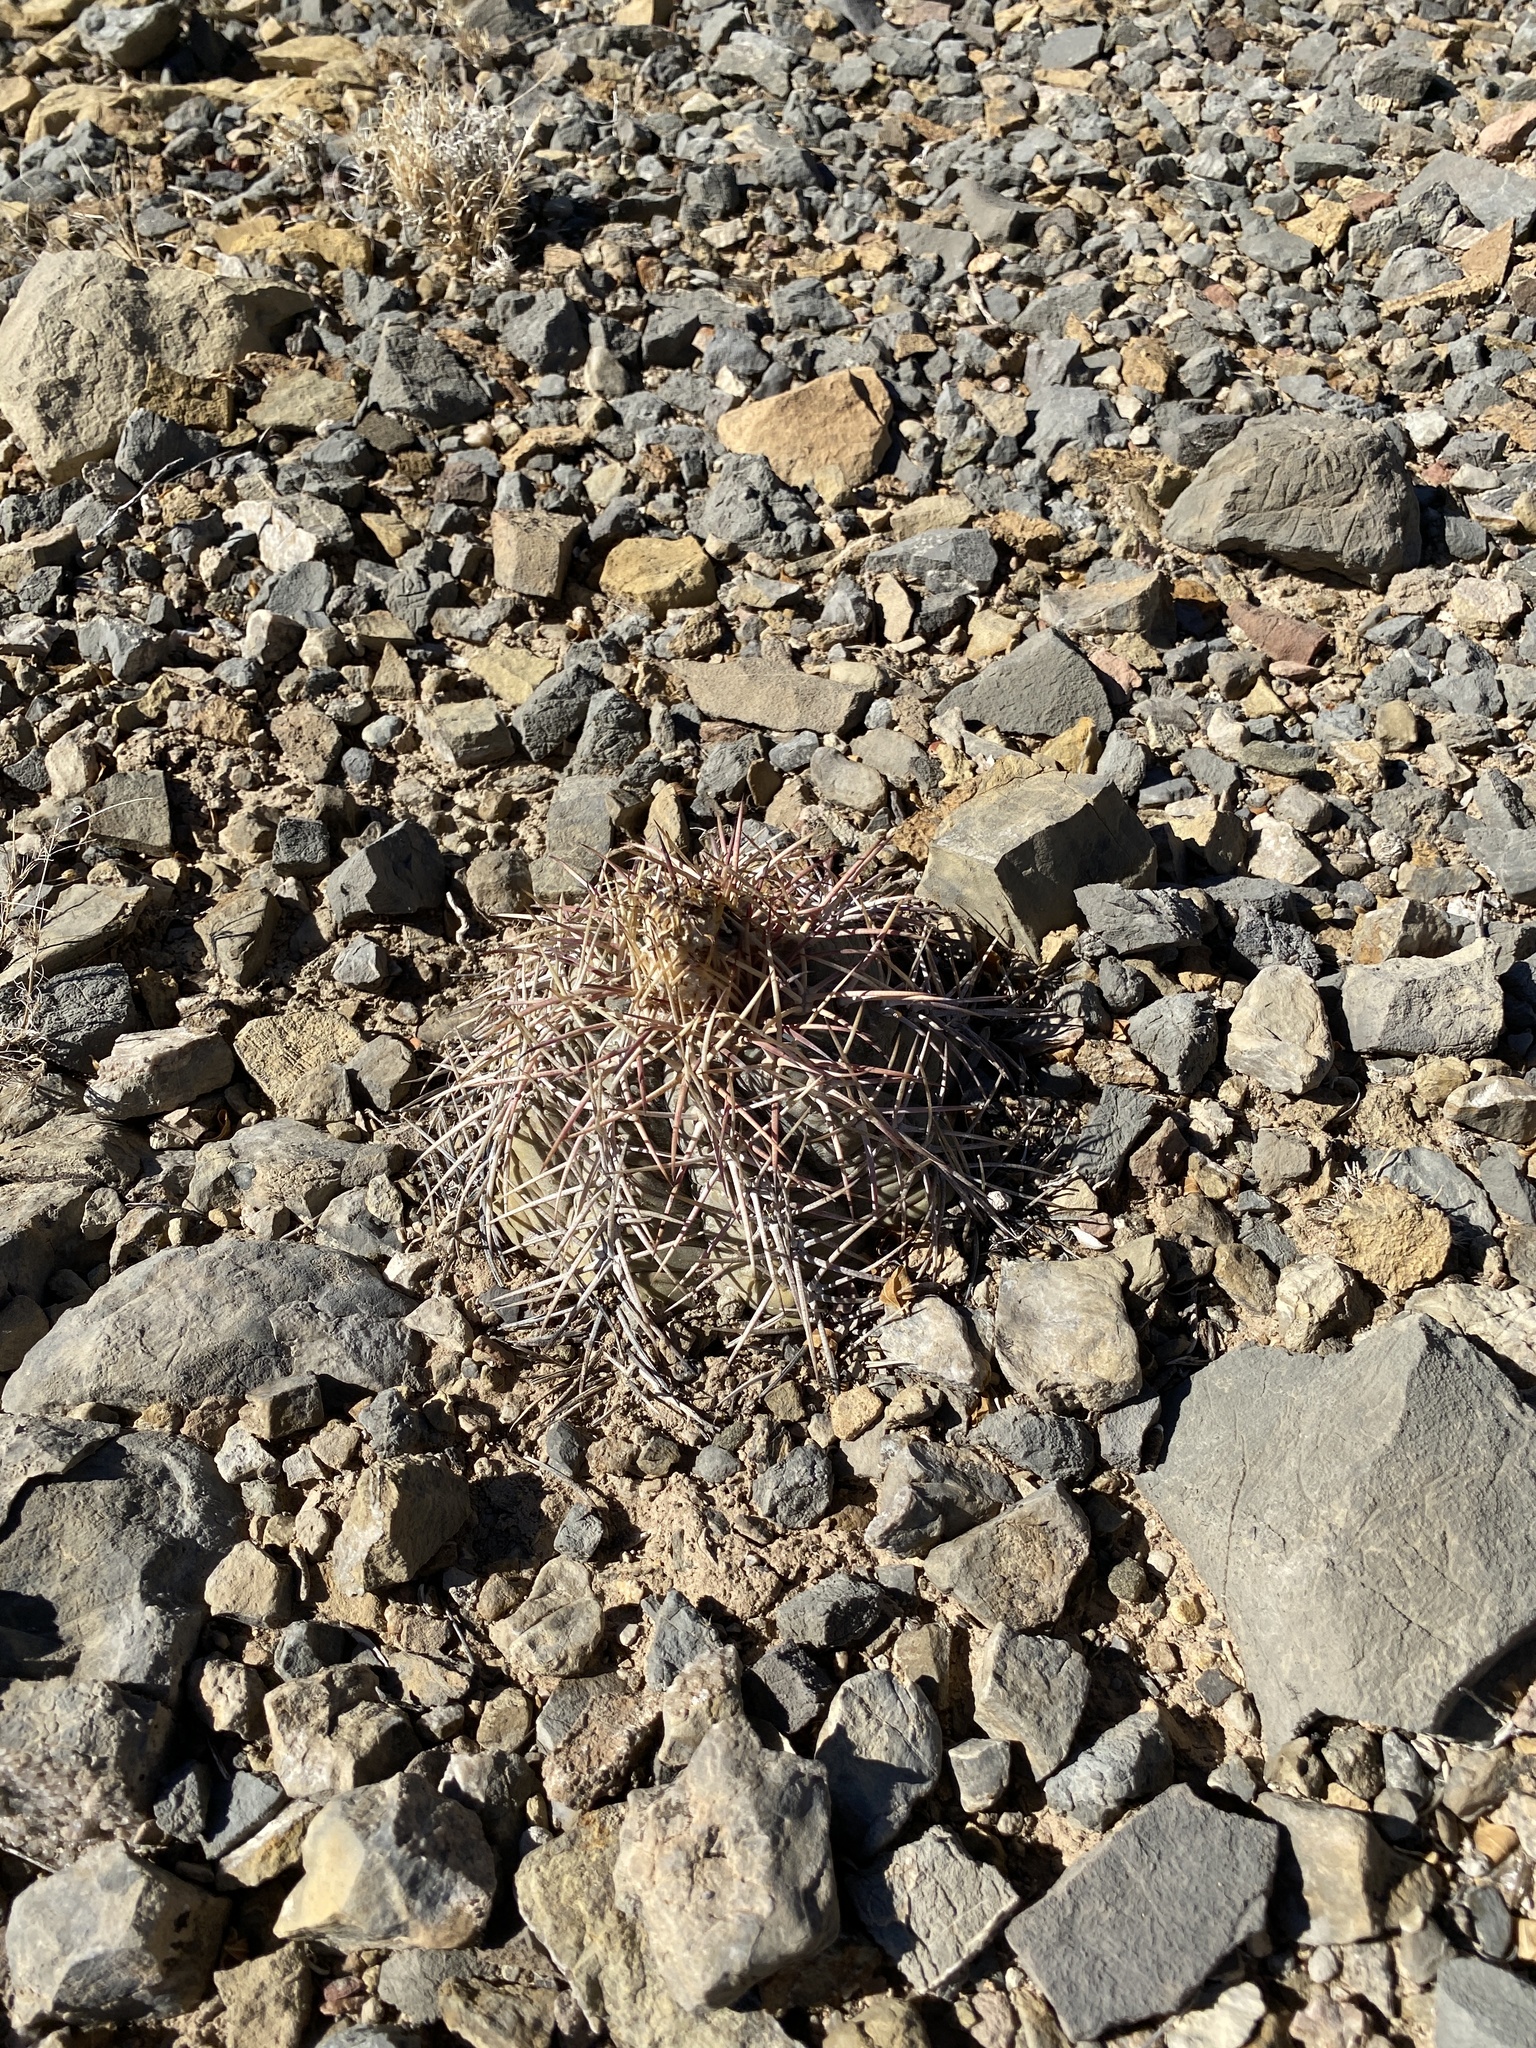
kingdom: Plantae
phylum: Tracheophyta
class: Magnoliopsida
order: Caryophyllales
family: Cactaceae
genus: Echinocactus
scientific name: Echinocactus horizonthalonius
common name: Devilshead
